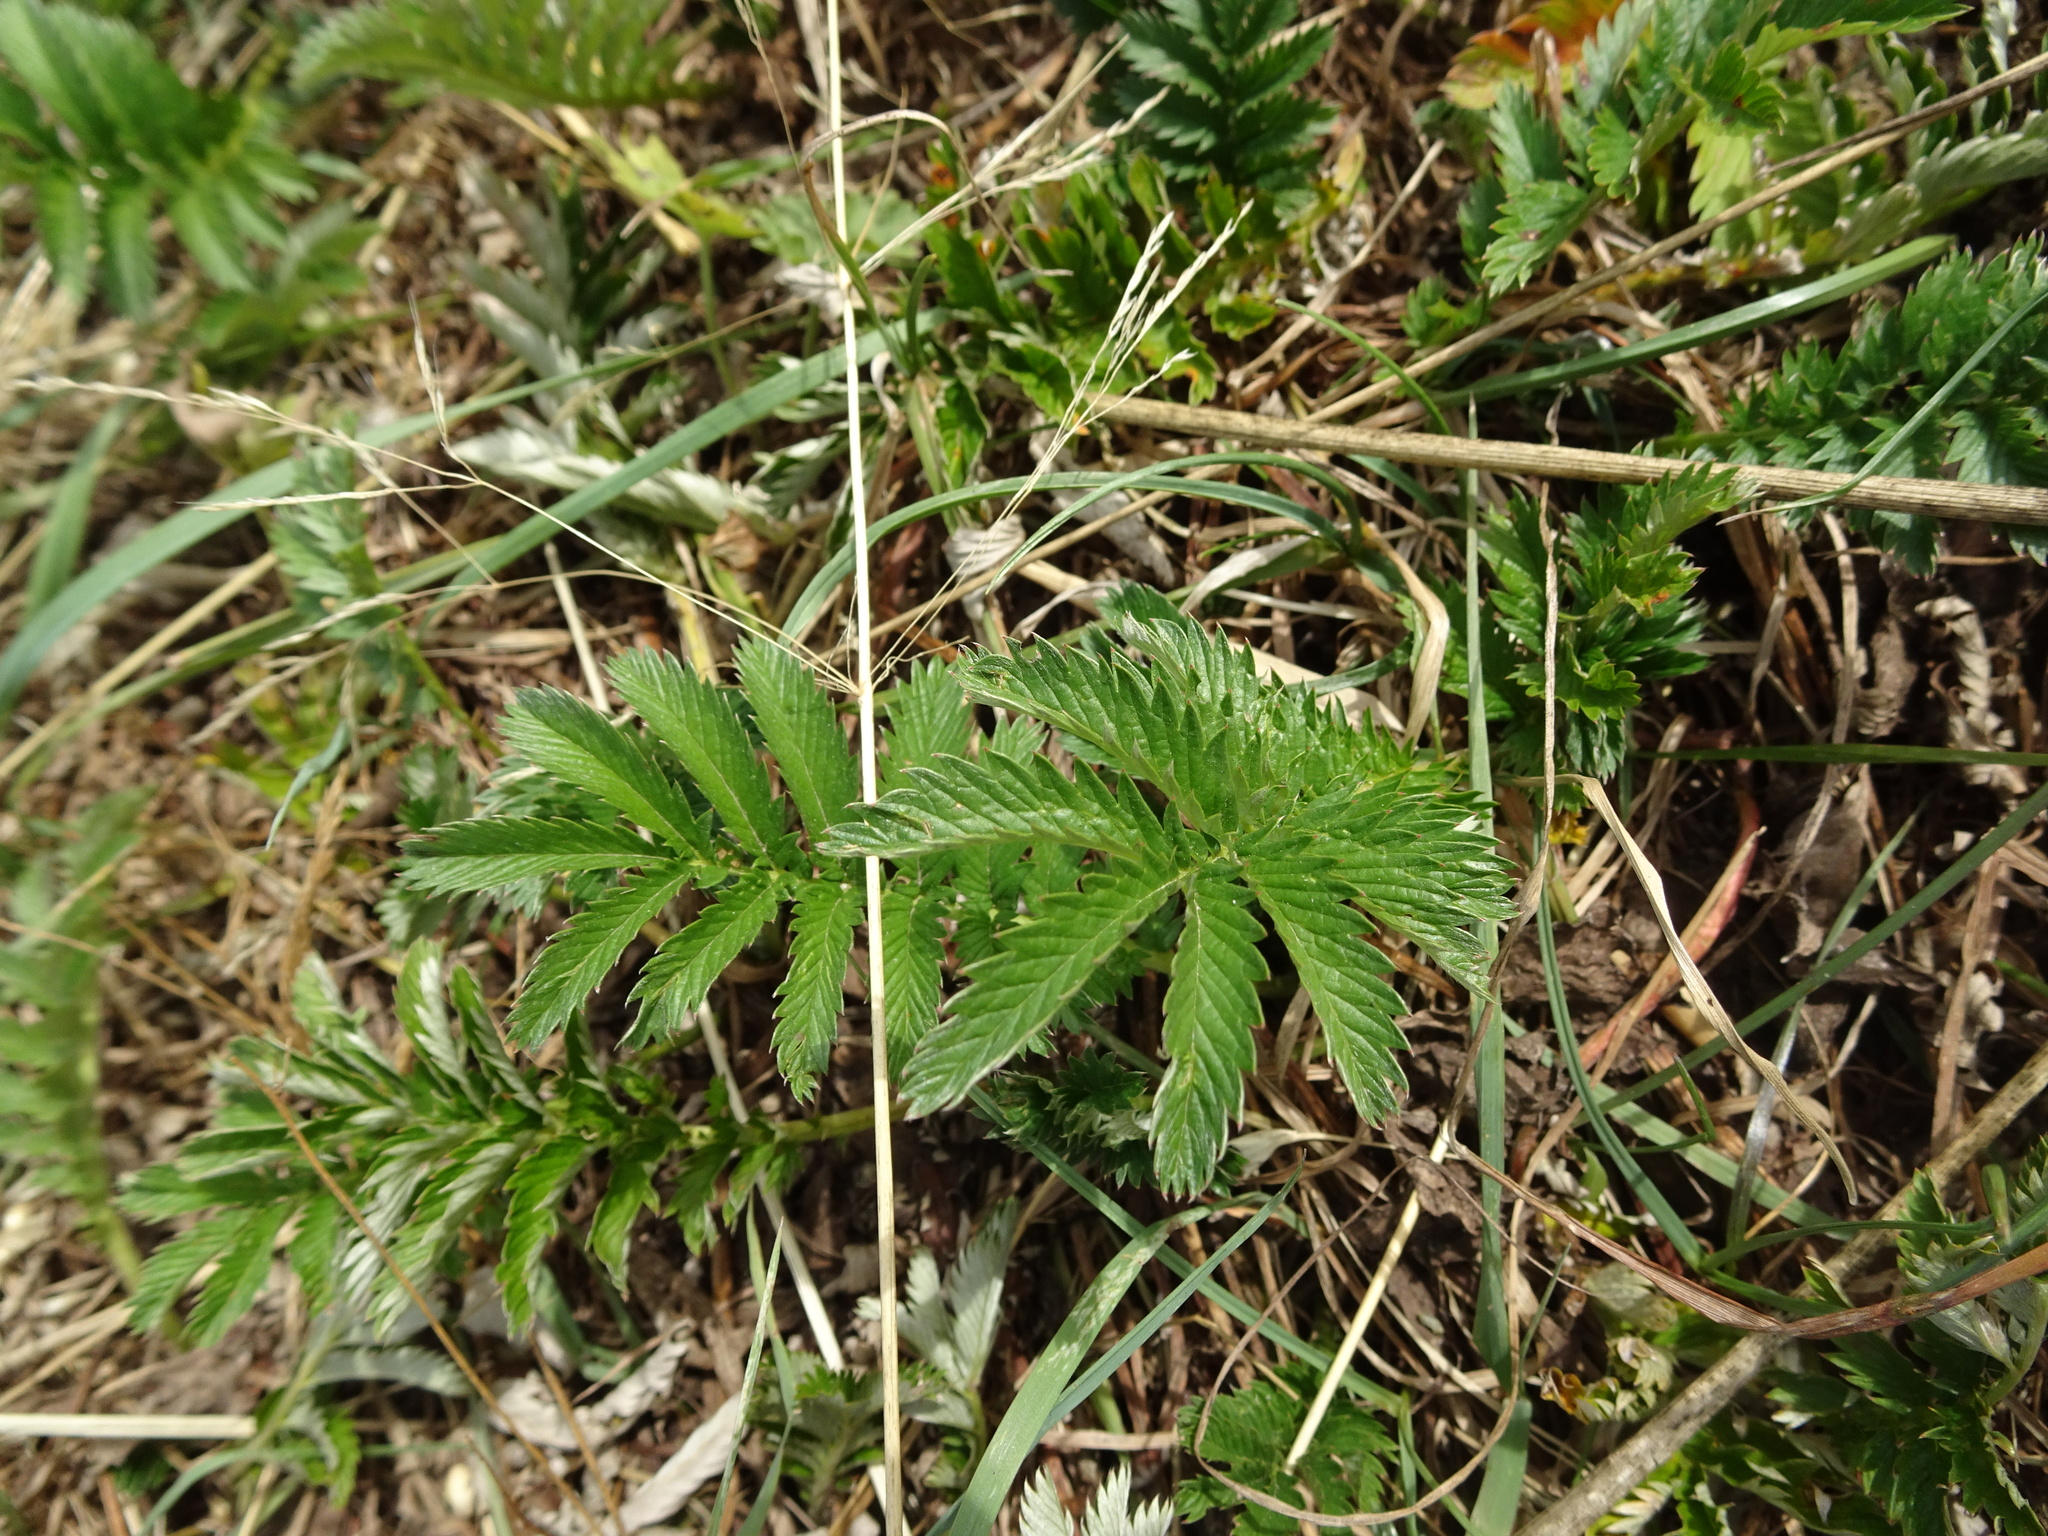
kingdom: Plantae
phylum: Tracheophyta
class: Magnoliopsida
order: Rosales
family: Rosaceae
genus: Argentina
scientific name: Argentina anserina
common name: Common silverweed
